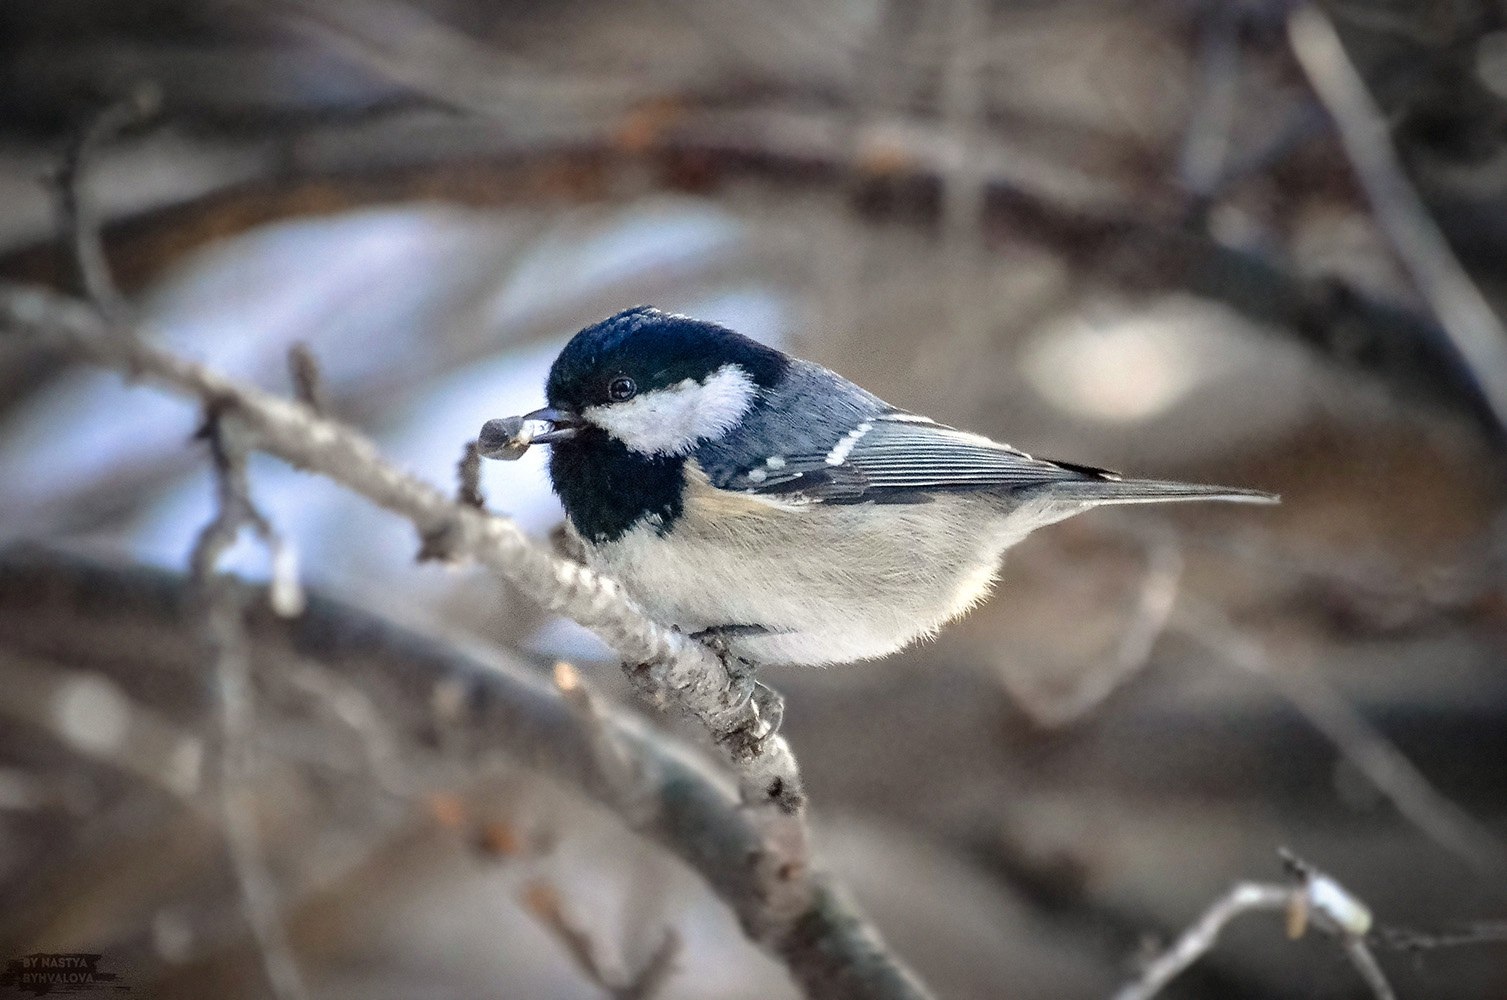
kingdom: Animalia
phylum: Chordata
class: Aves
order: Passeriformes
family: Paridae
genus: Periparus
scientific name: Periparus ater
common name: Coal tit
